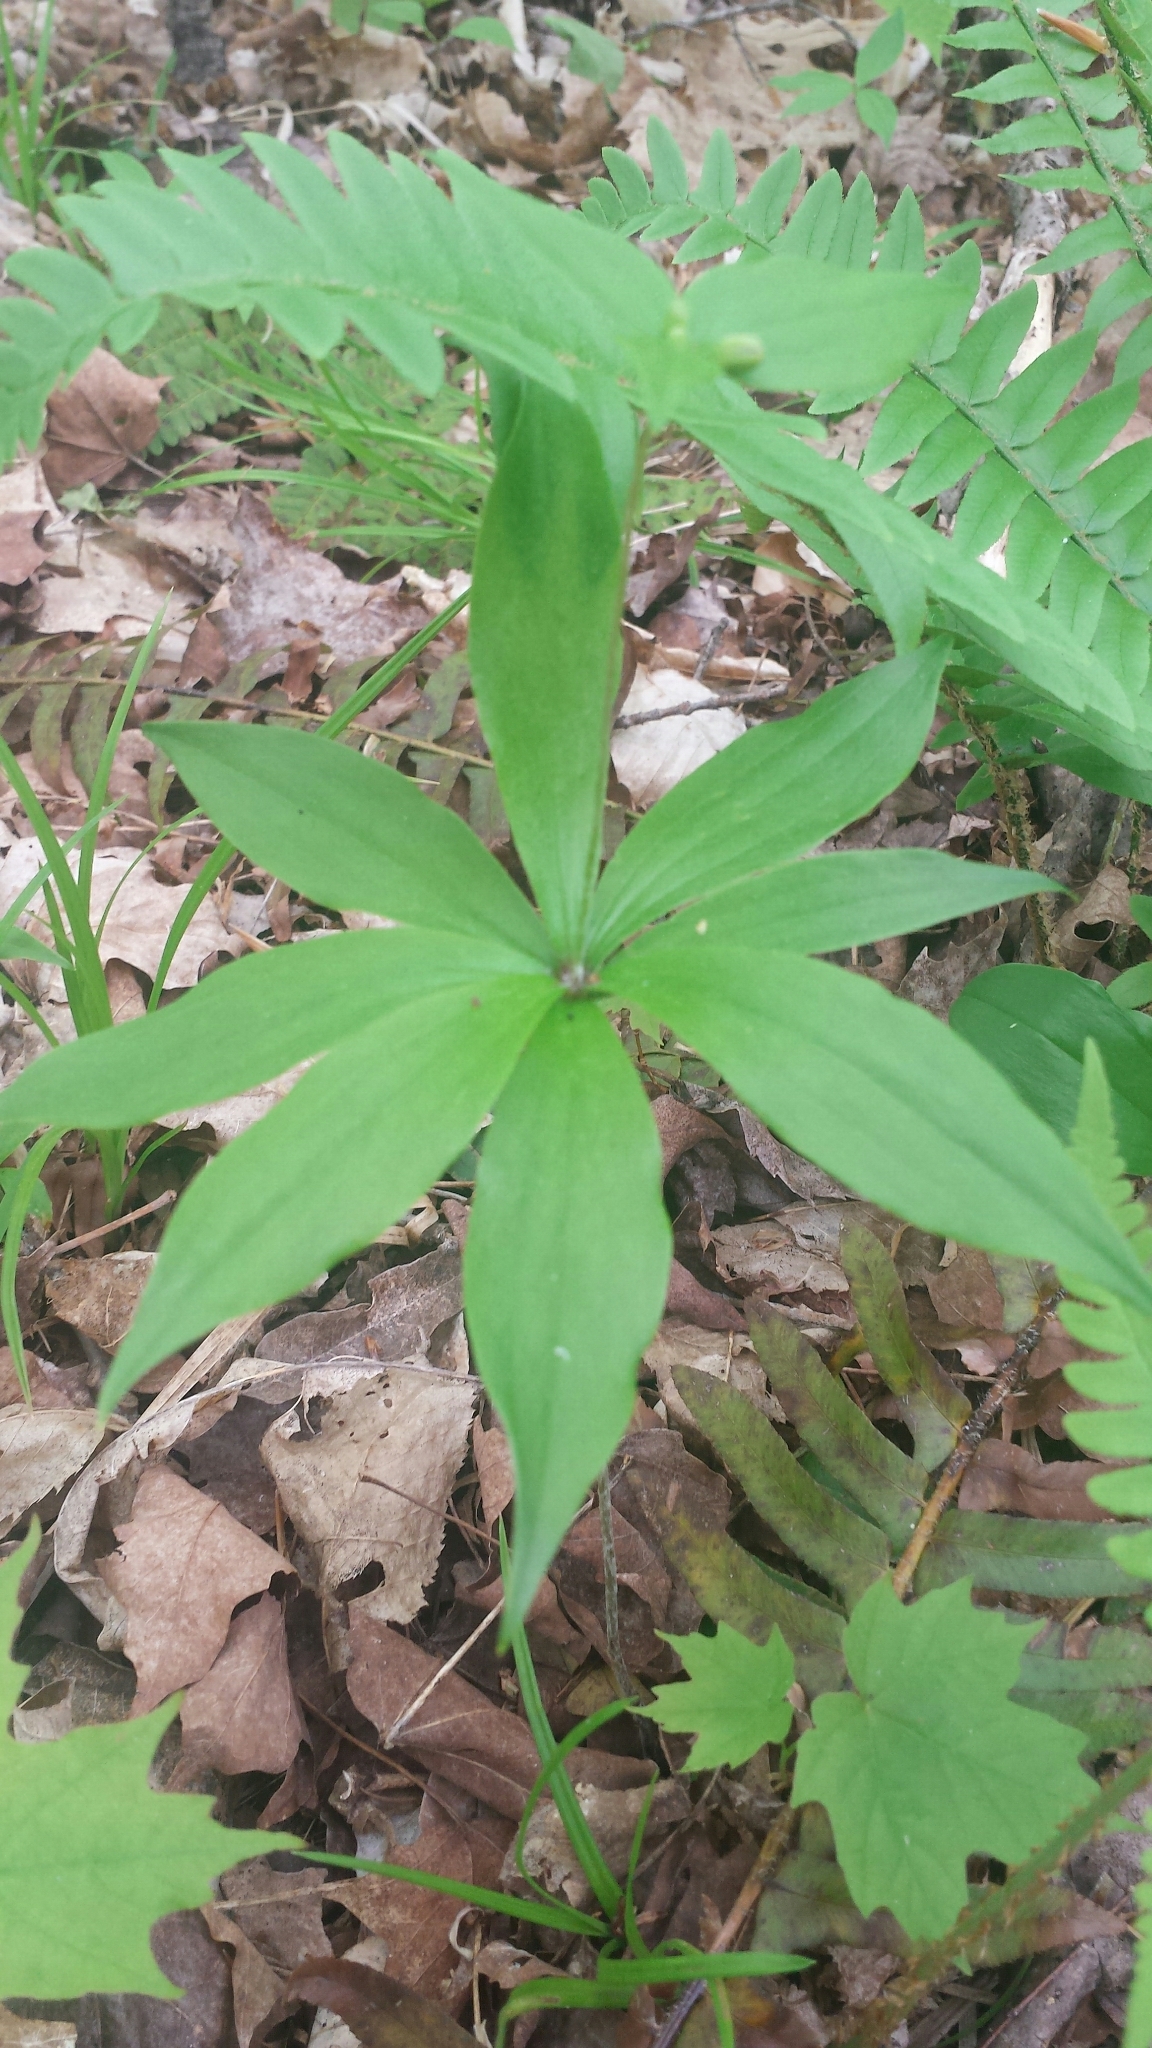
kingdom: Plantae
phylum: Tracheophyta
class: Liliopsida
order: Liliales
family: Liliaceae
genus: Medeola
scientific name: Medeola virginiana
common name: Indian cucumber-root
